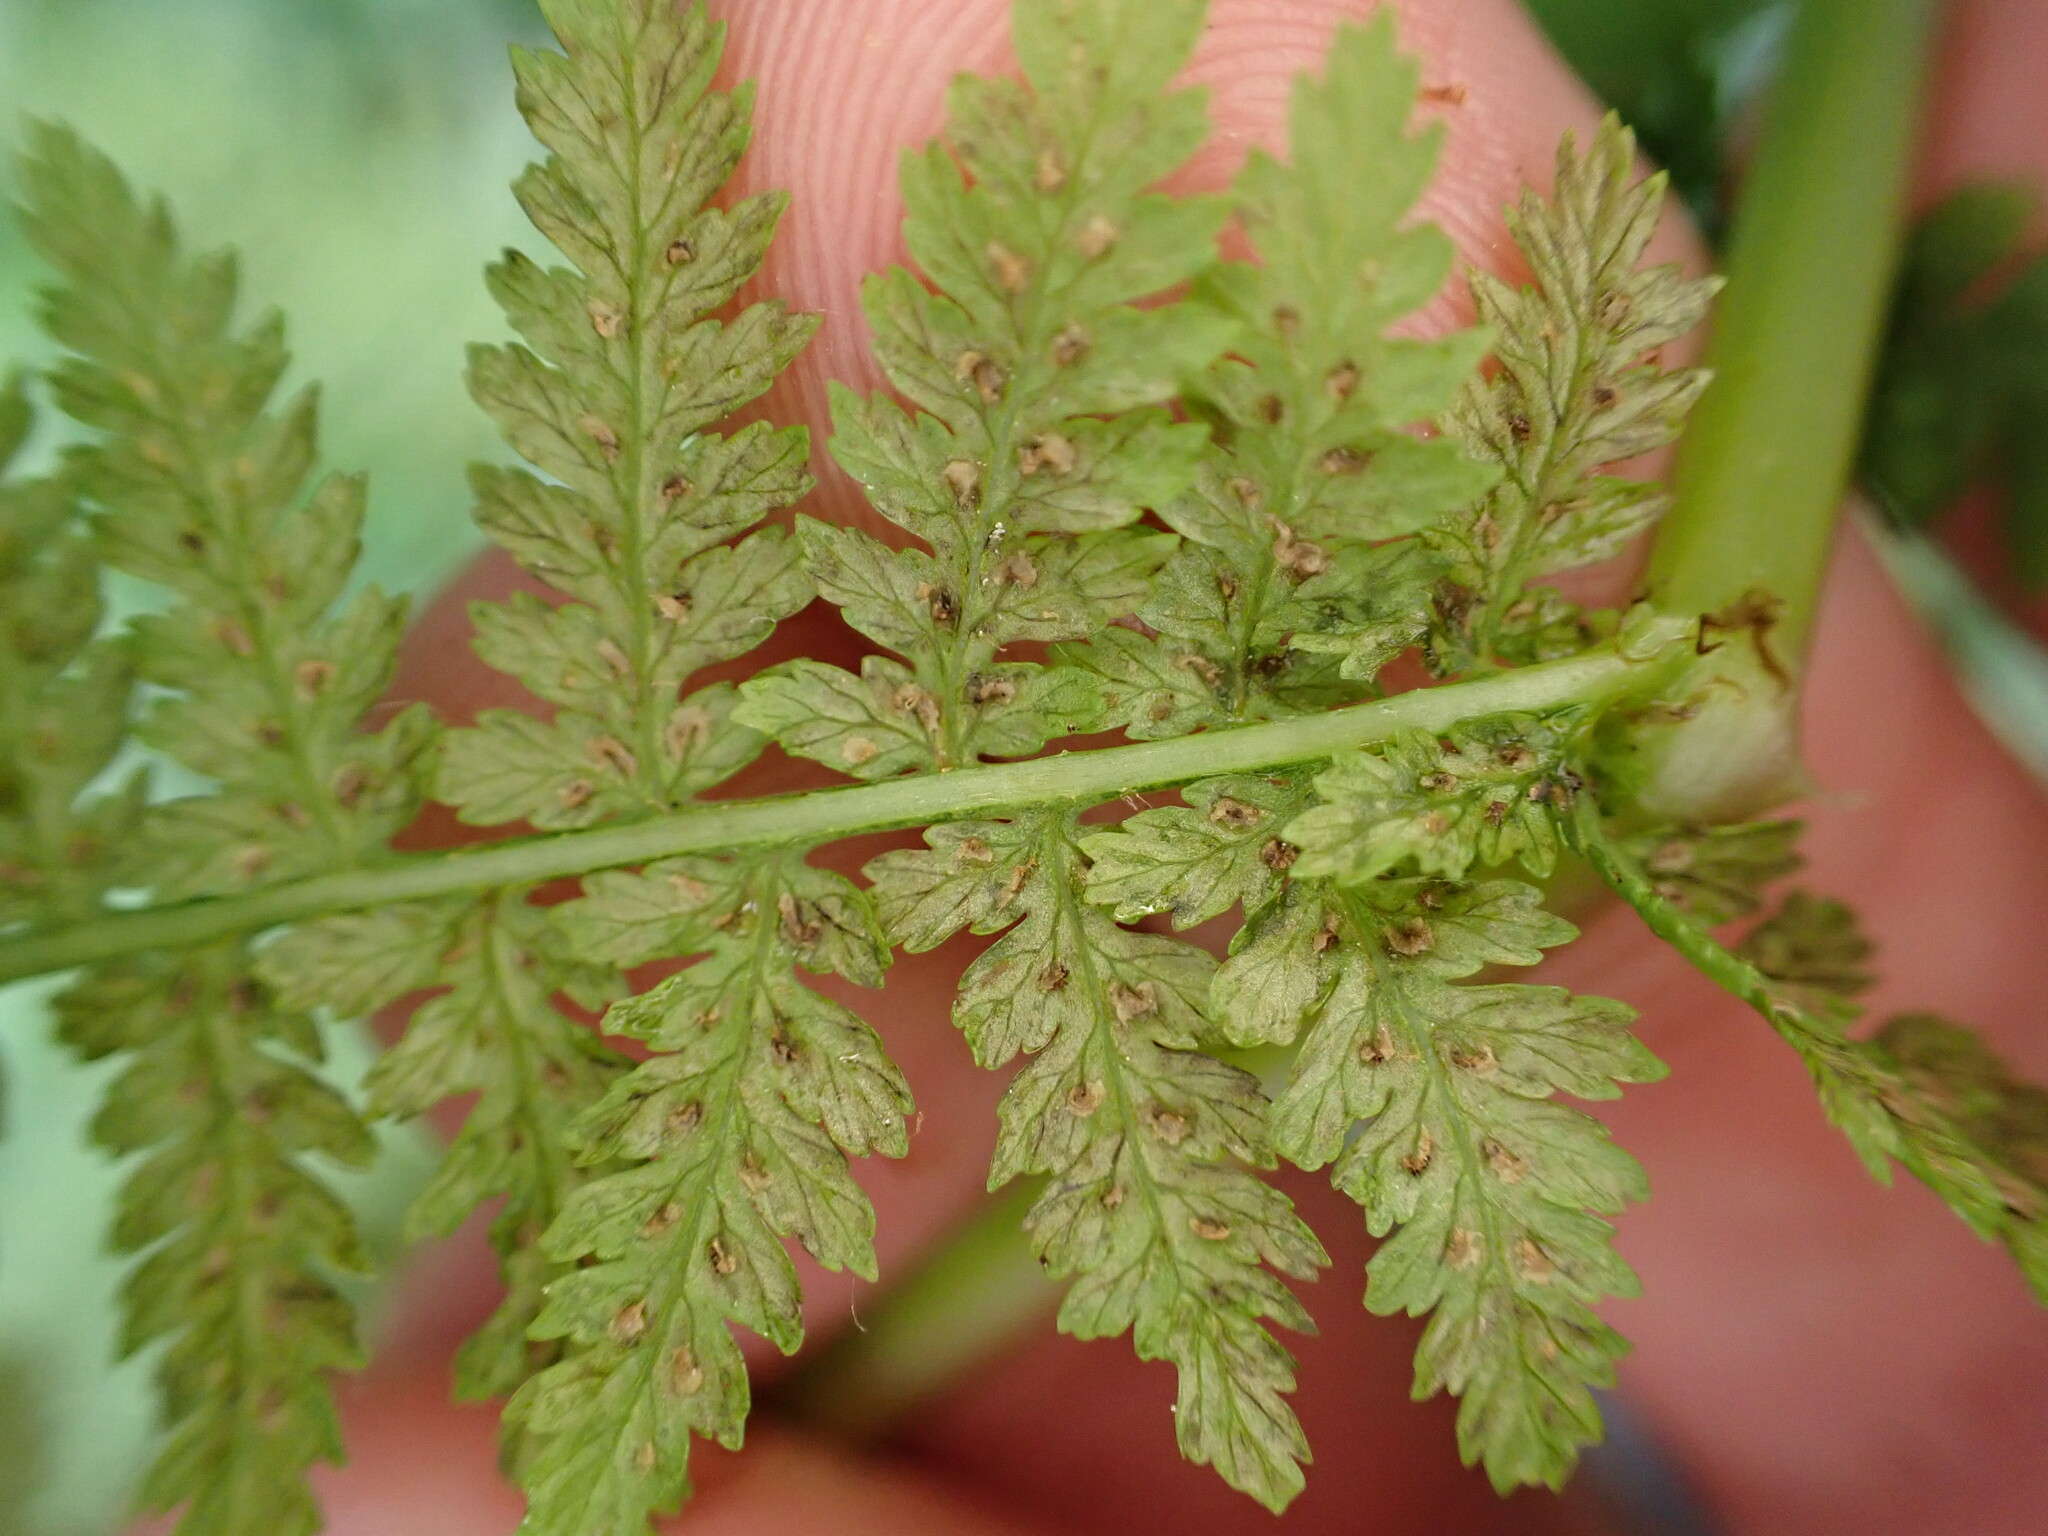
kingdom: Plantae
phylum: Tracheophyta
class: Polypodiopsida
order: Polypodiales
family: Athyriaceae
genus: Athyrium
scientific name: Athyrium filix-femina
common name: Lady fern
